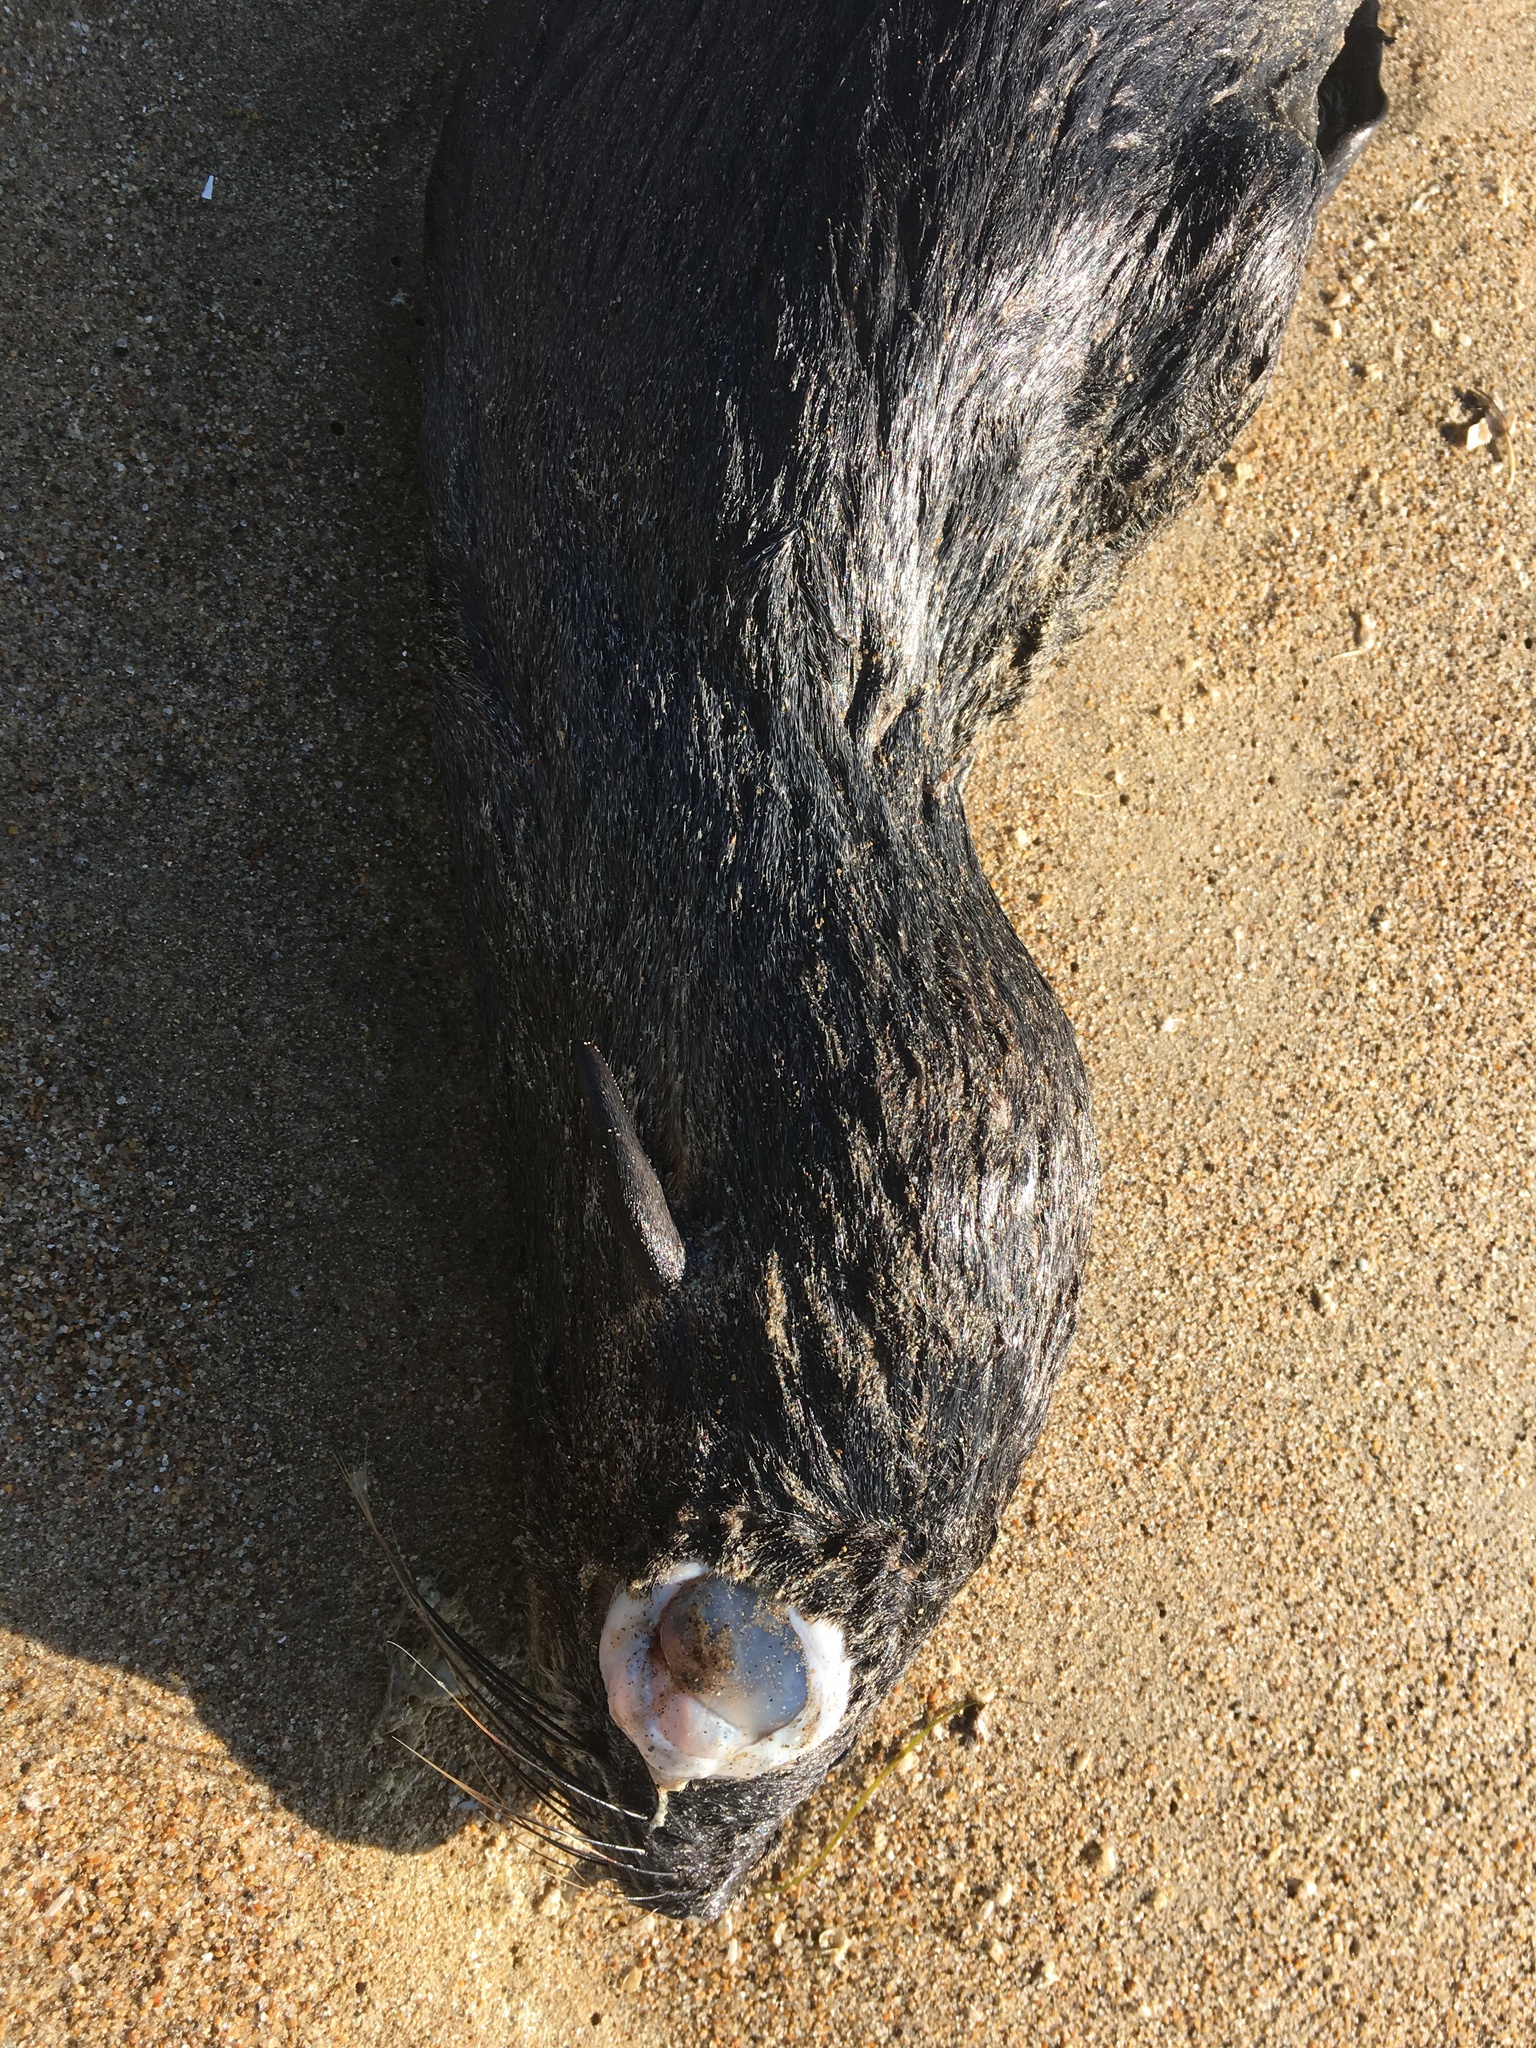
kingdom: Animalia
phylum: Chordata
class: Mammalia
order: Carnivora
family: Otariidae
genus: Callorhinus
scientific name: Callorhinus ursinus
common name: Northern fur seal
